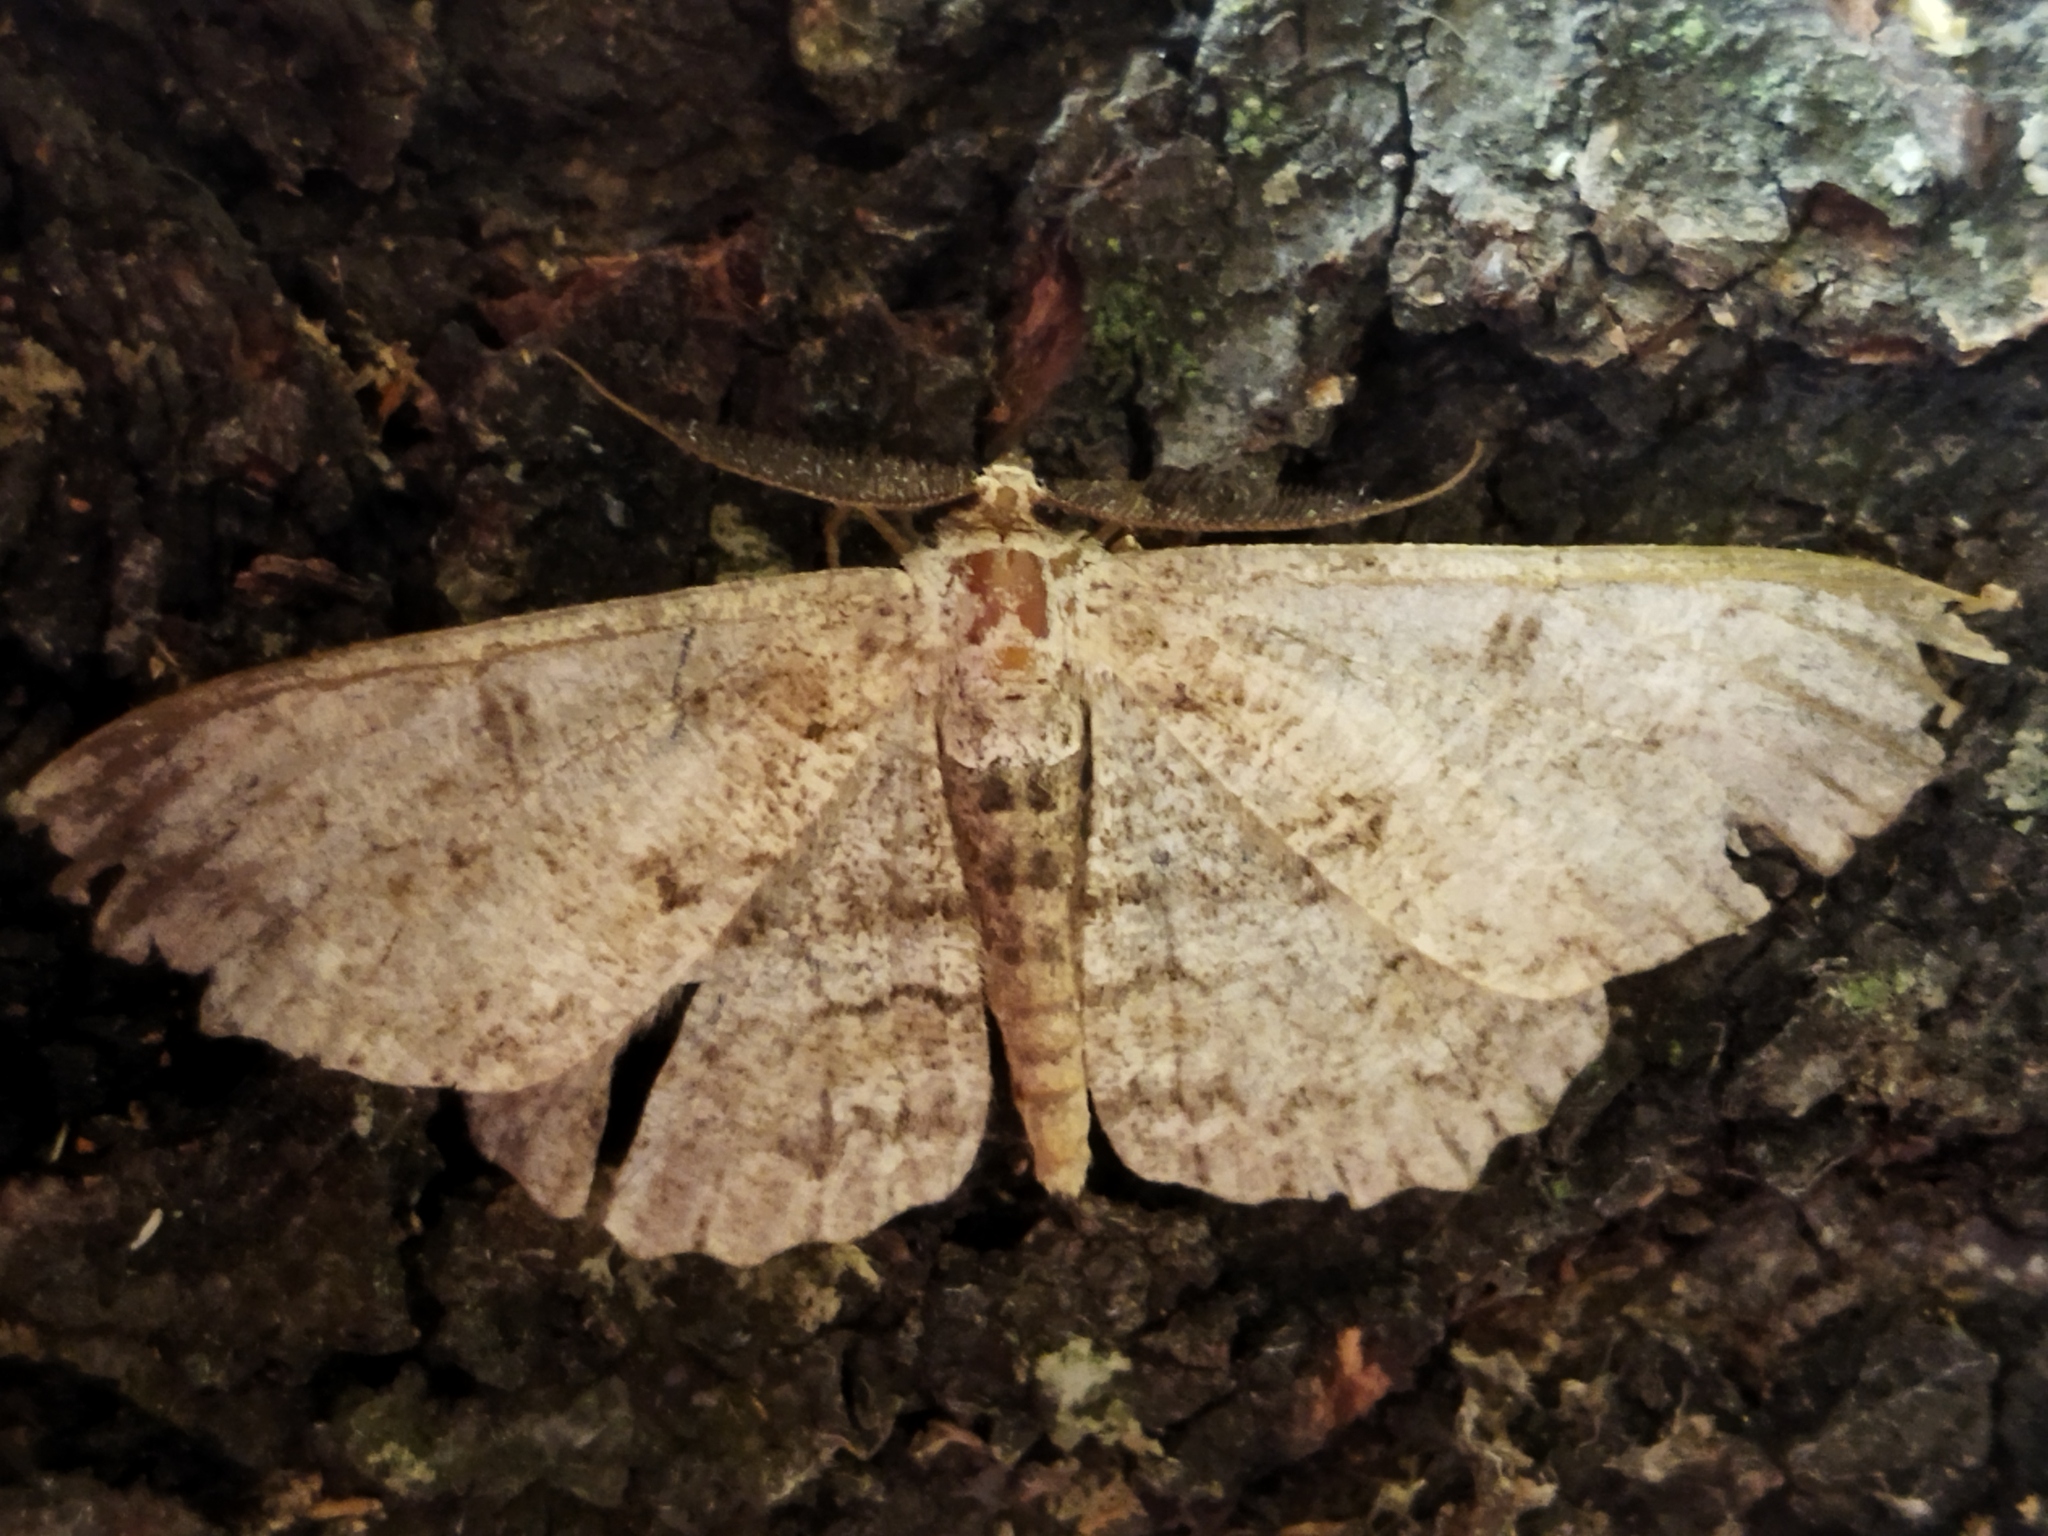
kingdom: Animalia
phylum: Arthropoda
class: Insecta
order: Lepidoptera
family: Geometridae
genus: Hypomecis
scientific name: Hypomecis punctinalis
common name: Pale oak beauty
